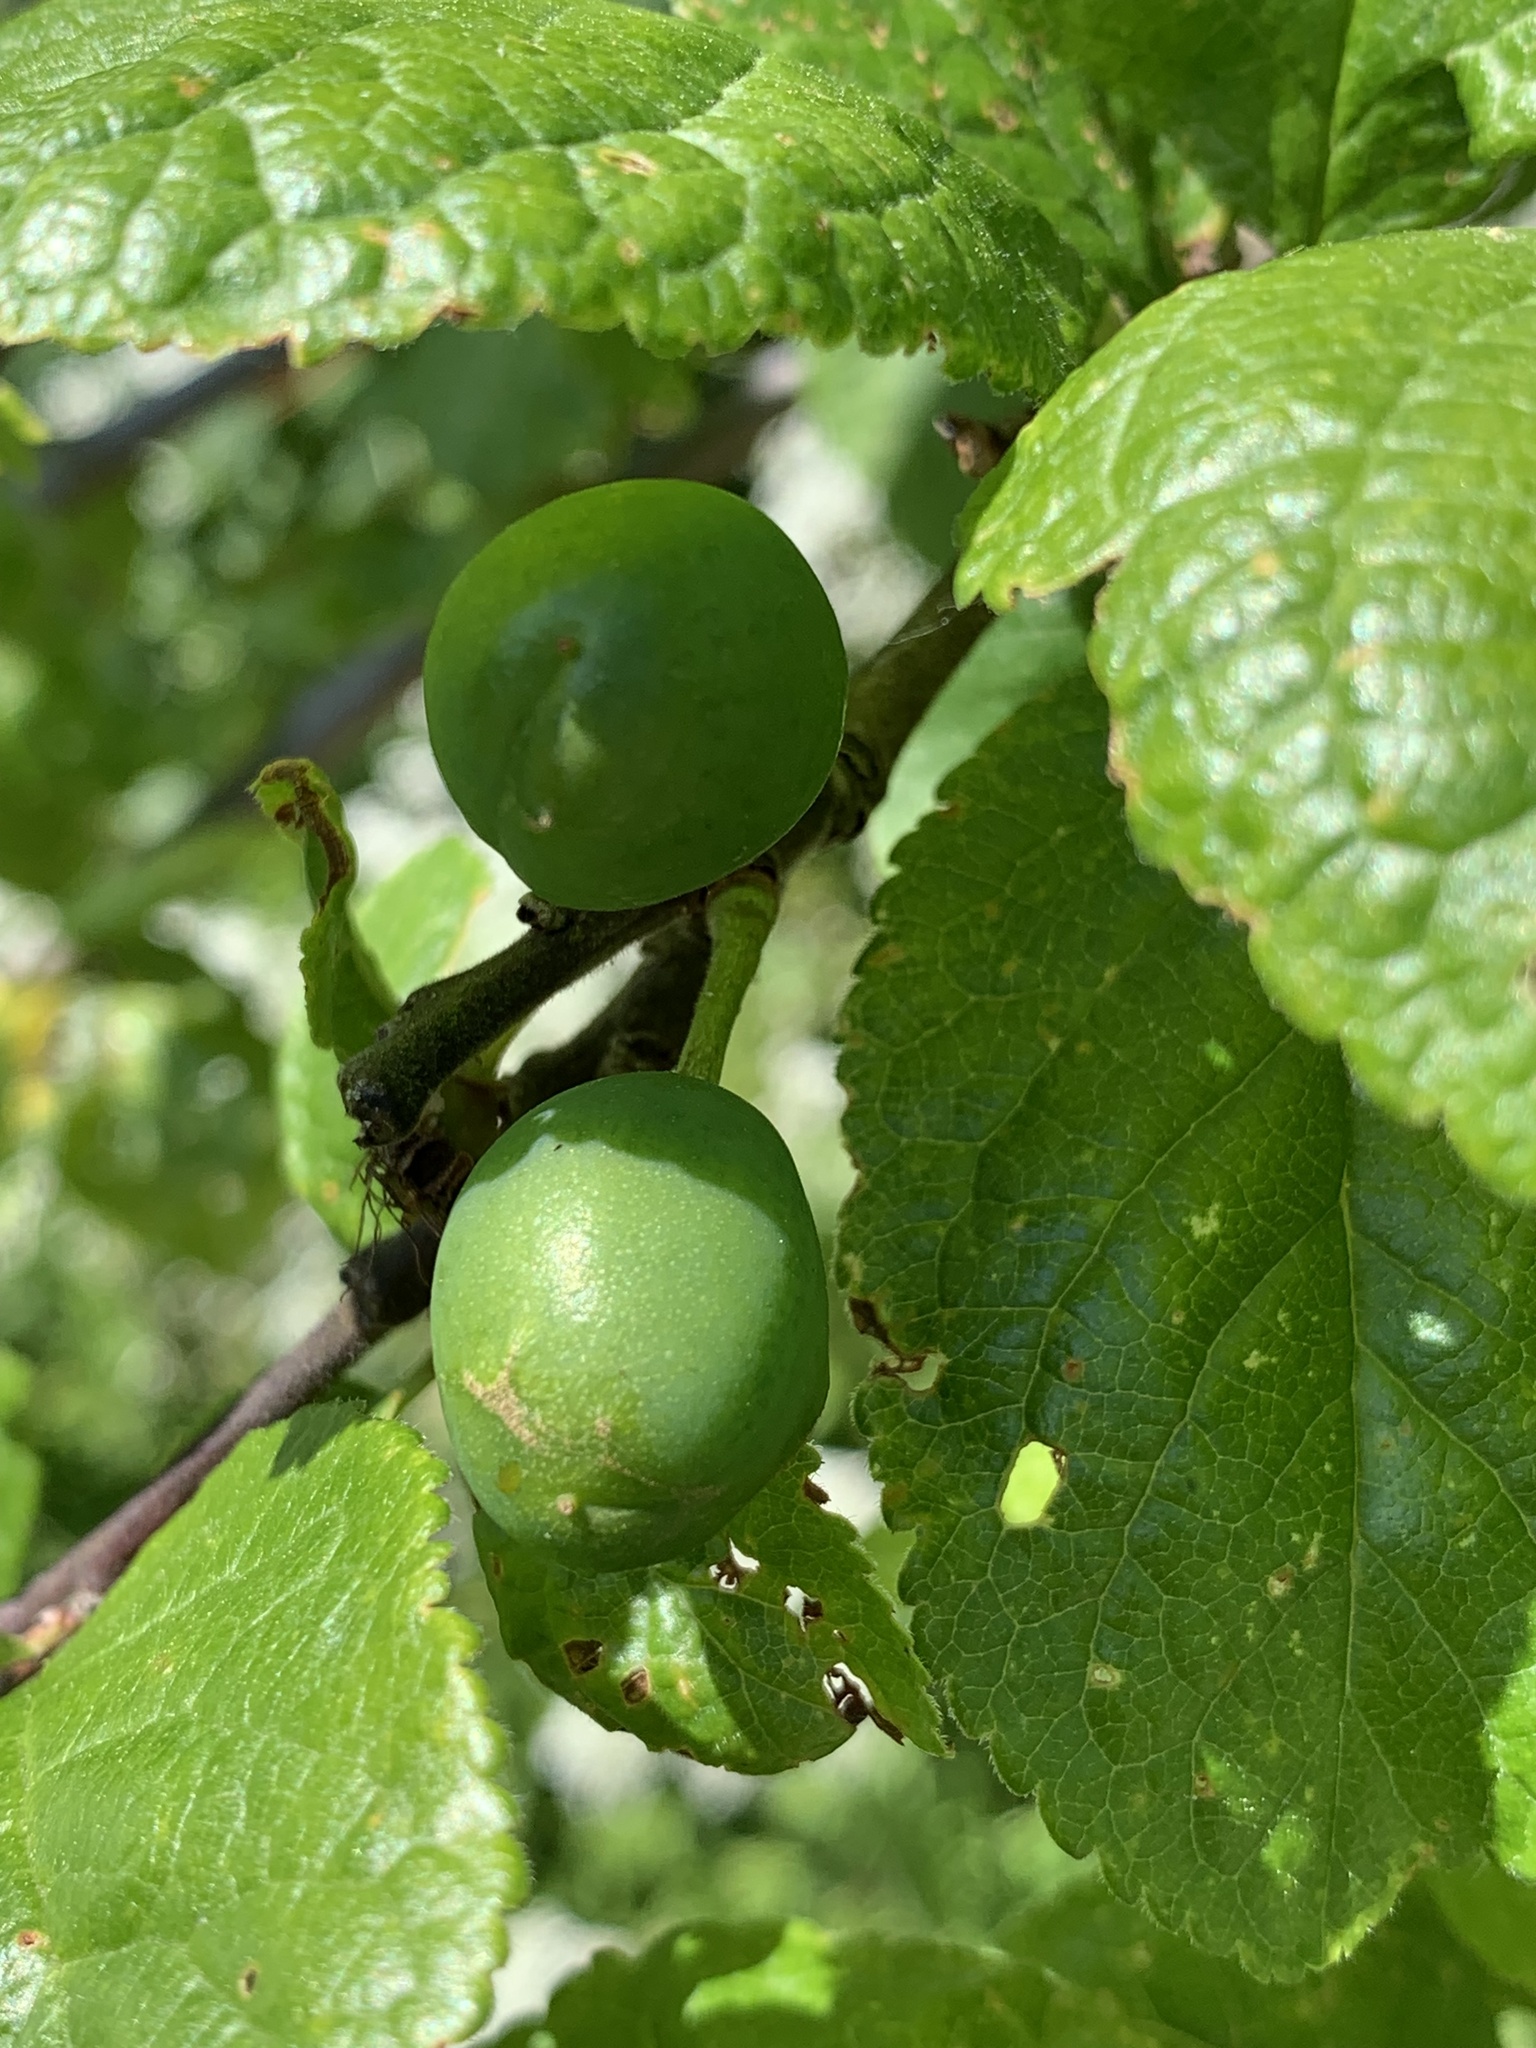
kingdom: Plantae
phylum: Tracheophyta
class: Magnoliopsida
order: Rosales
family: Rosaceae
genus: Prunus
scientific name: Prunus domestica
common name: Wild plum
